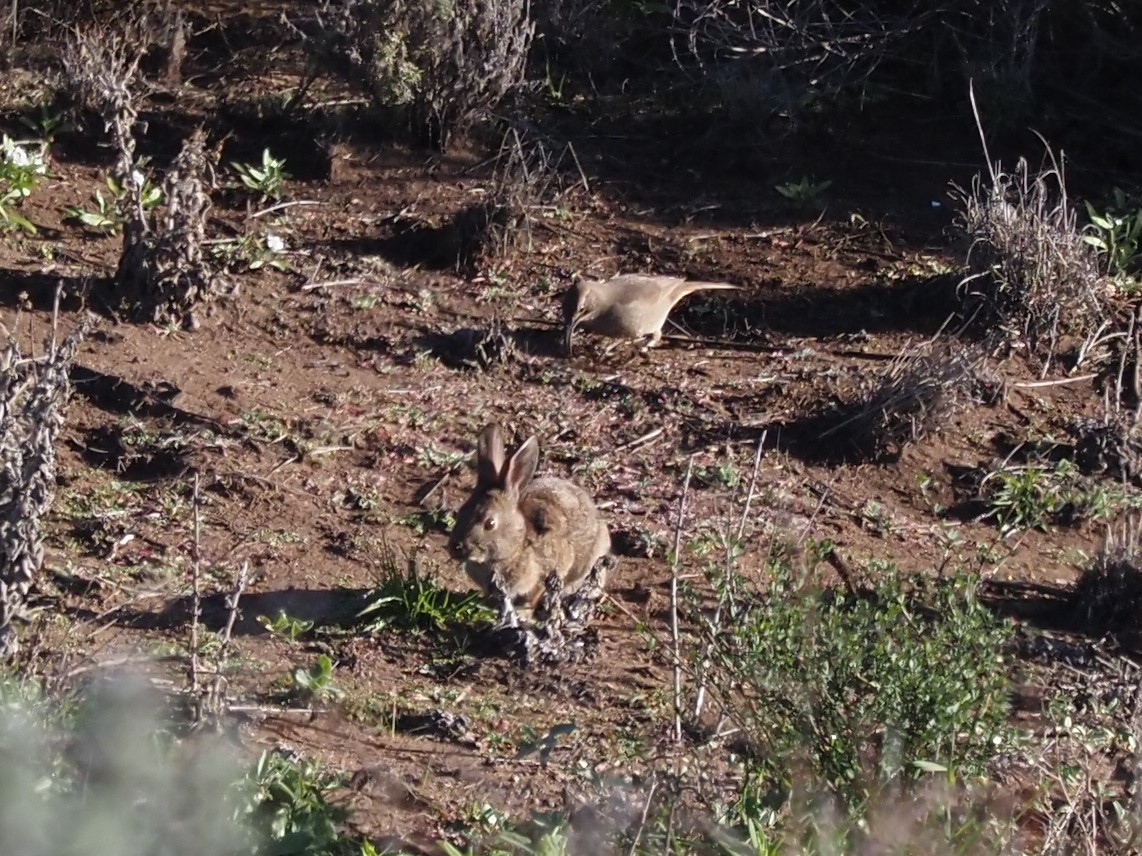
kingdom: Animalia
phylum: Chordata
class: Aves
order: Passeriformes
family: Mimidae
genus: Toxostoma
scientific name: Toxostoma redivivum
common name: California thrasher
